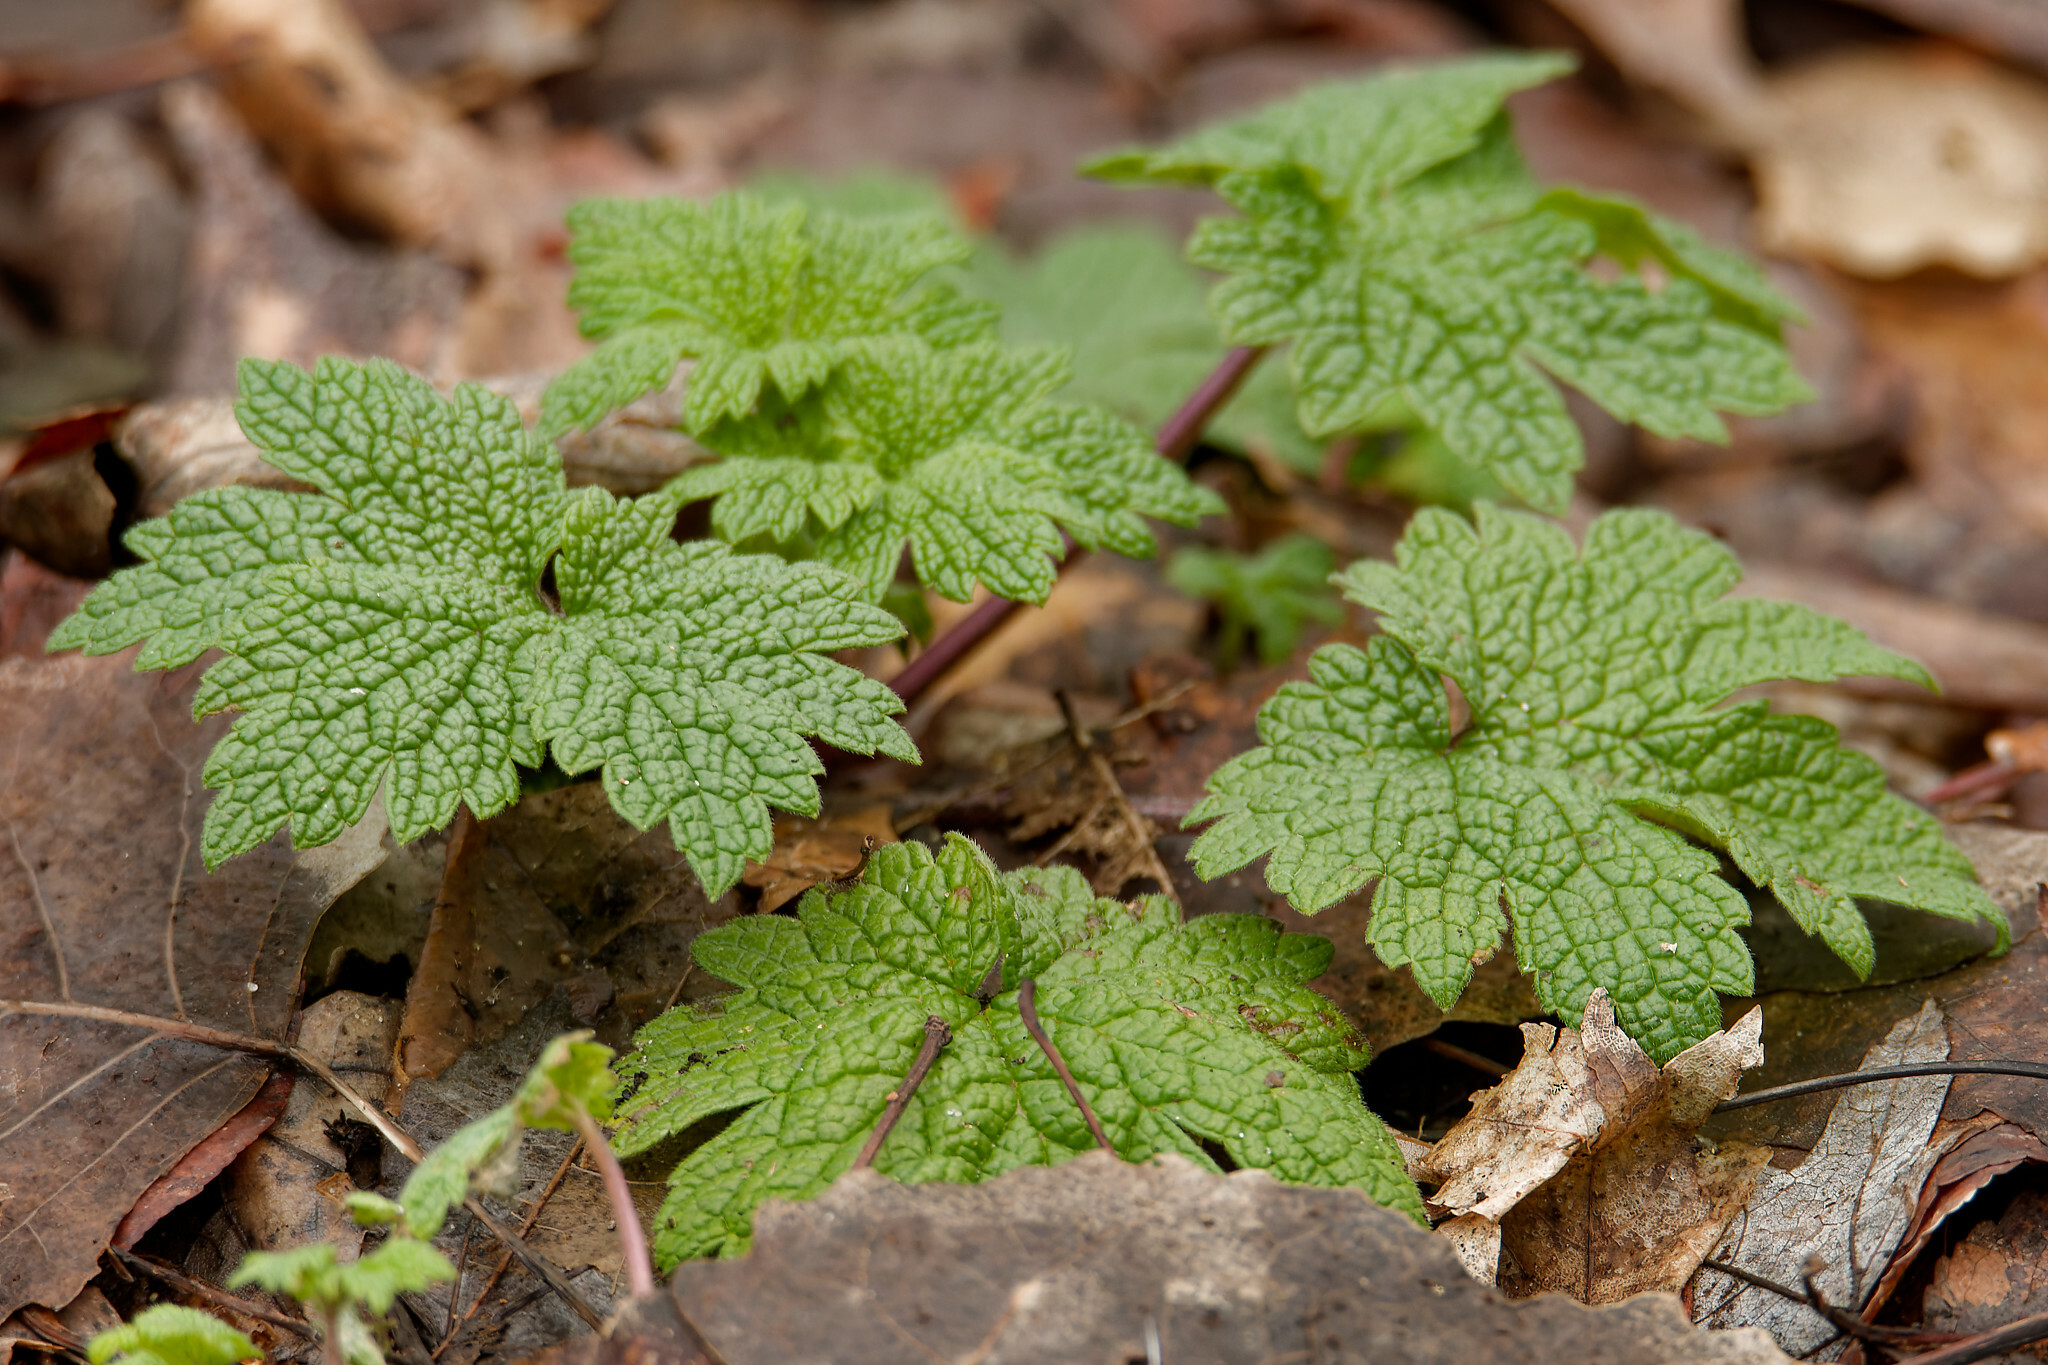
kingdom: Plantae
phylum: Tracheophyta
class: Magnoliopsida
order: Lamiales
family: Lamiaceae
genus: Leonurus
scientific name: Leonurus cardiaca
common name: Motherwort
